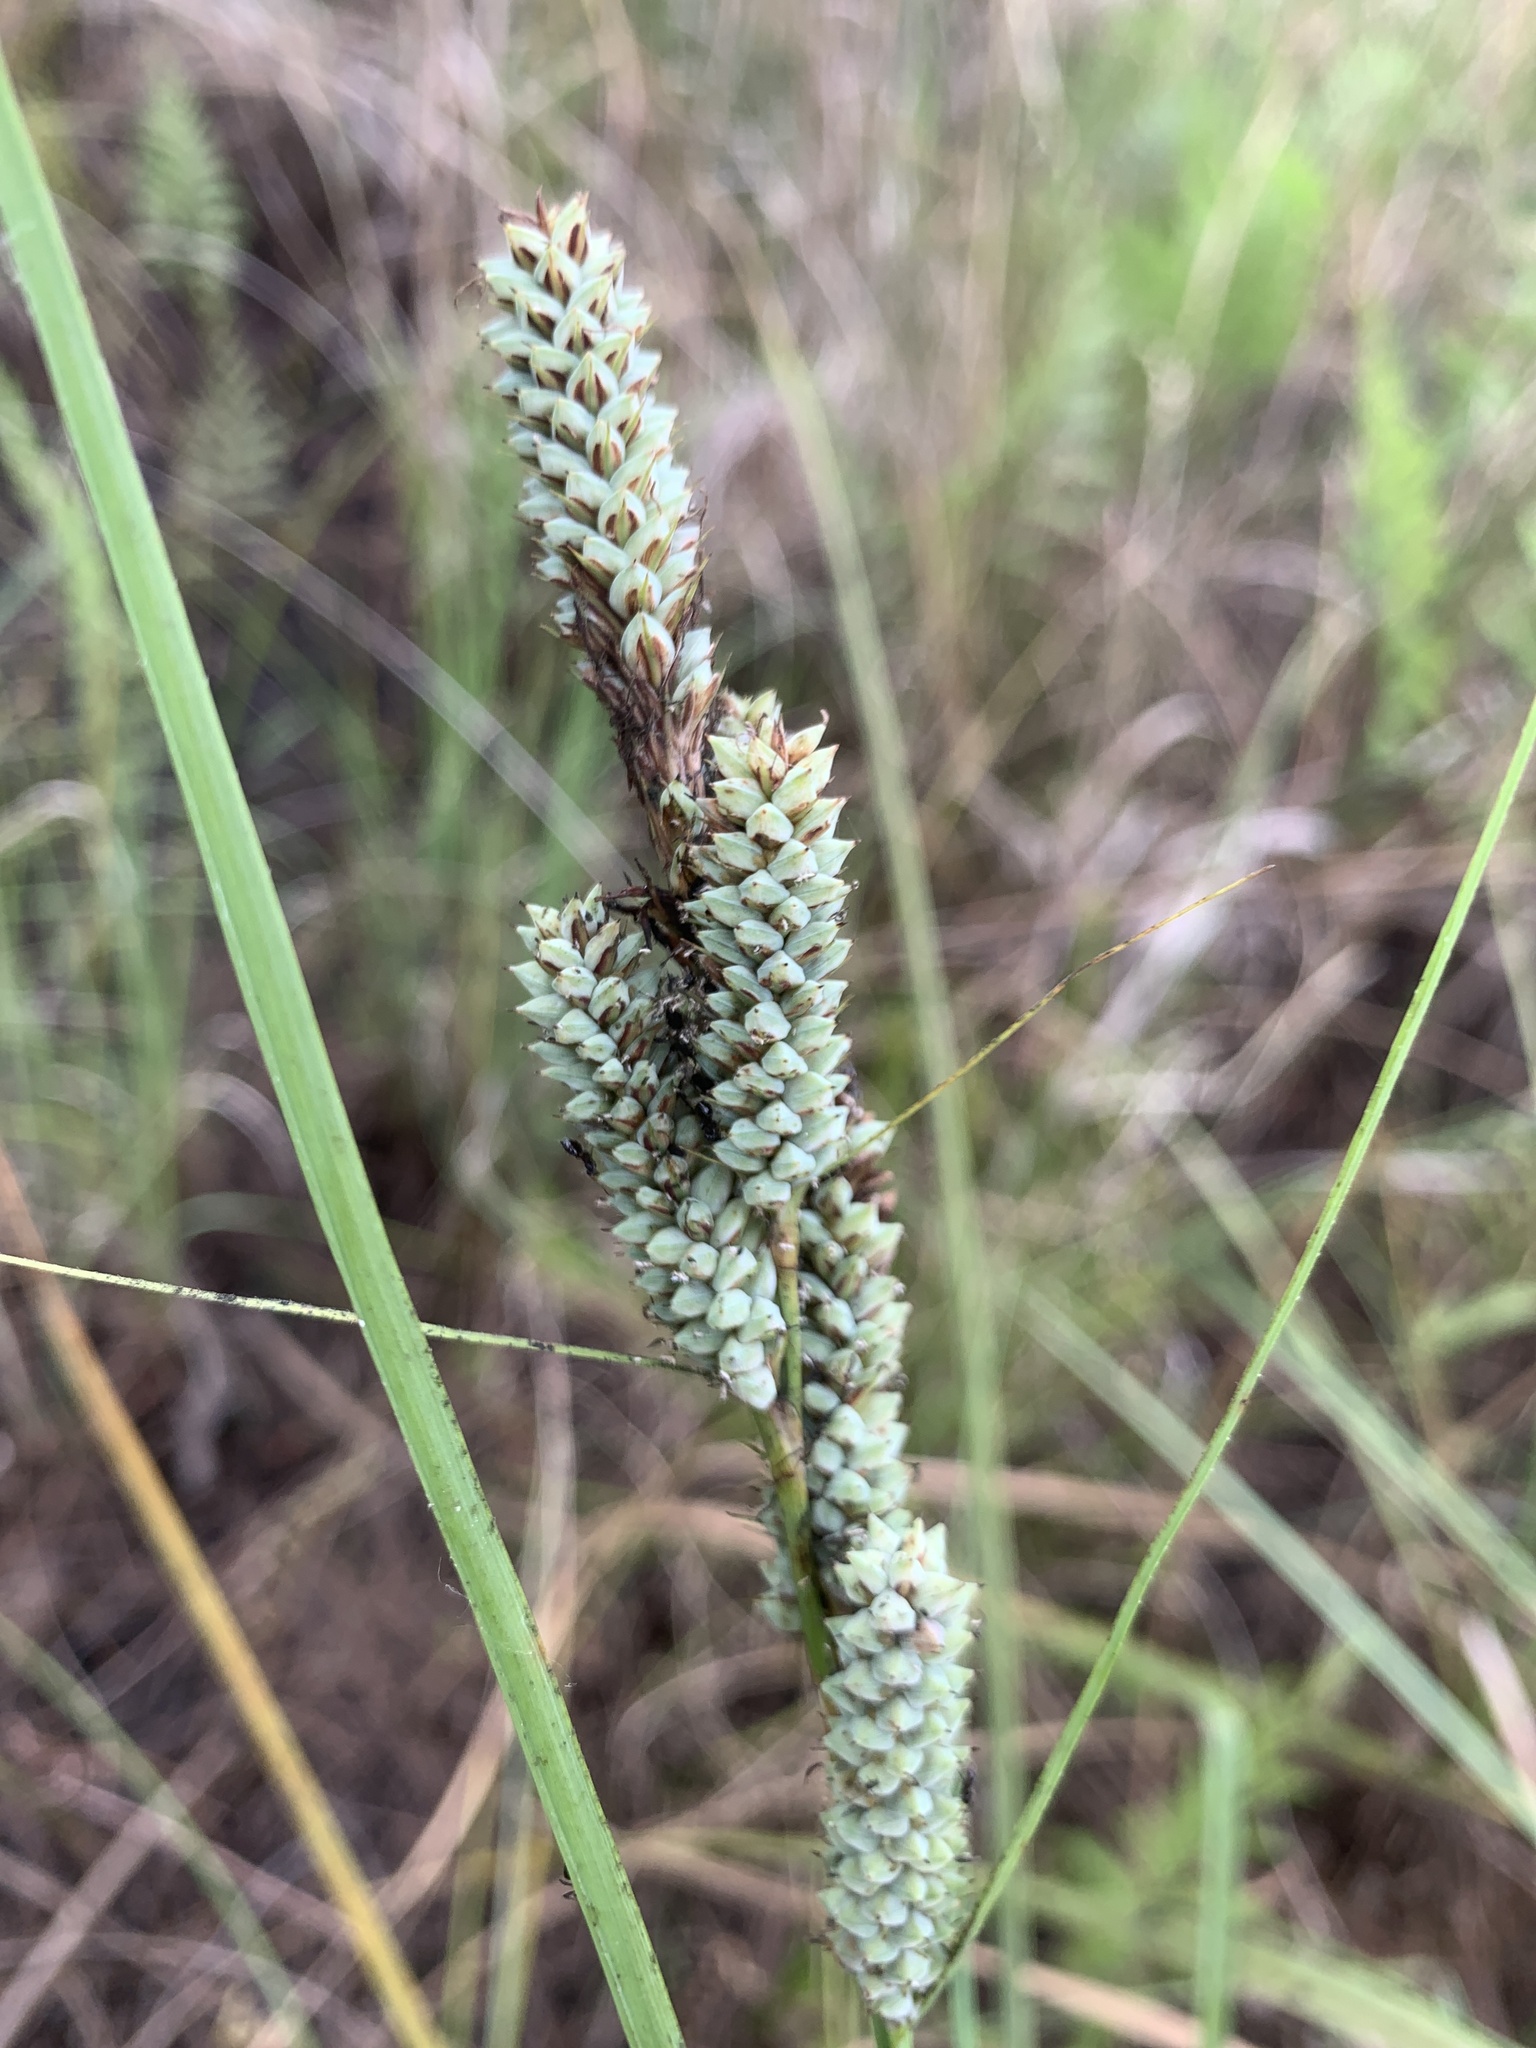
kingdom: Plantae
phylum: Tracheophyta
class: Liliopsida
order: Poales
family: Cyperaceae
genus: Carex
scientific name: Carex verrucosa
